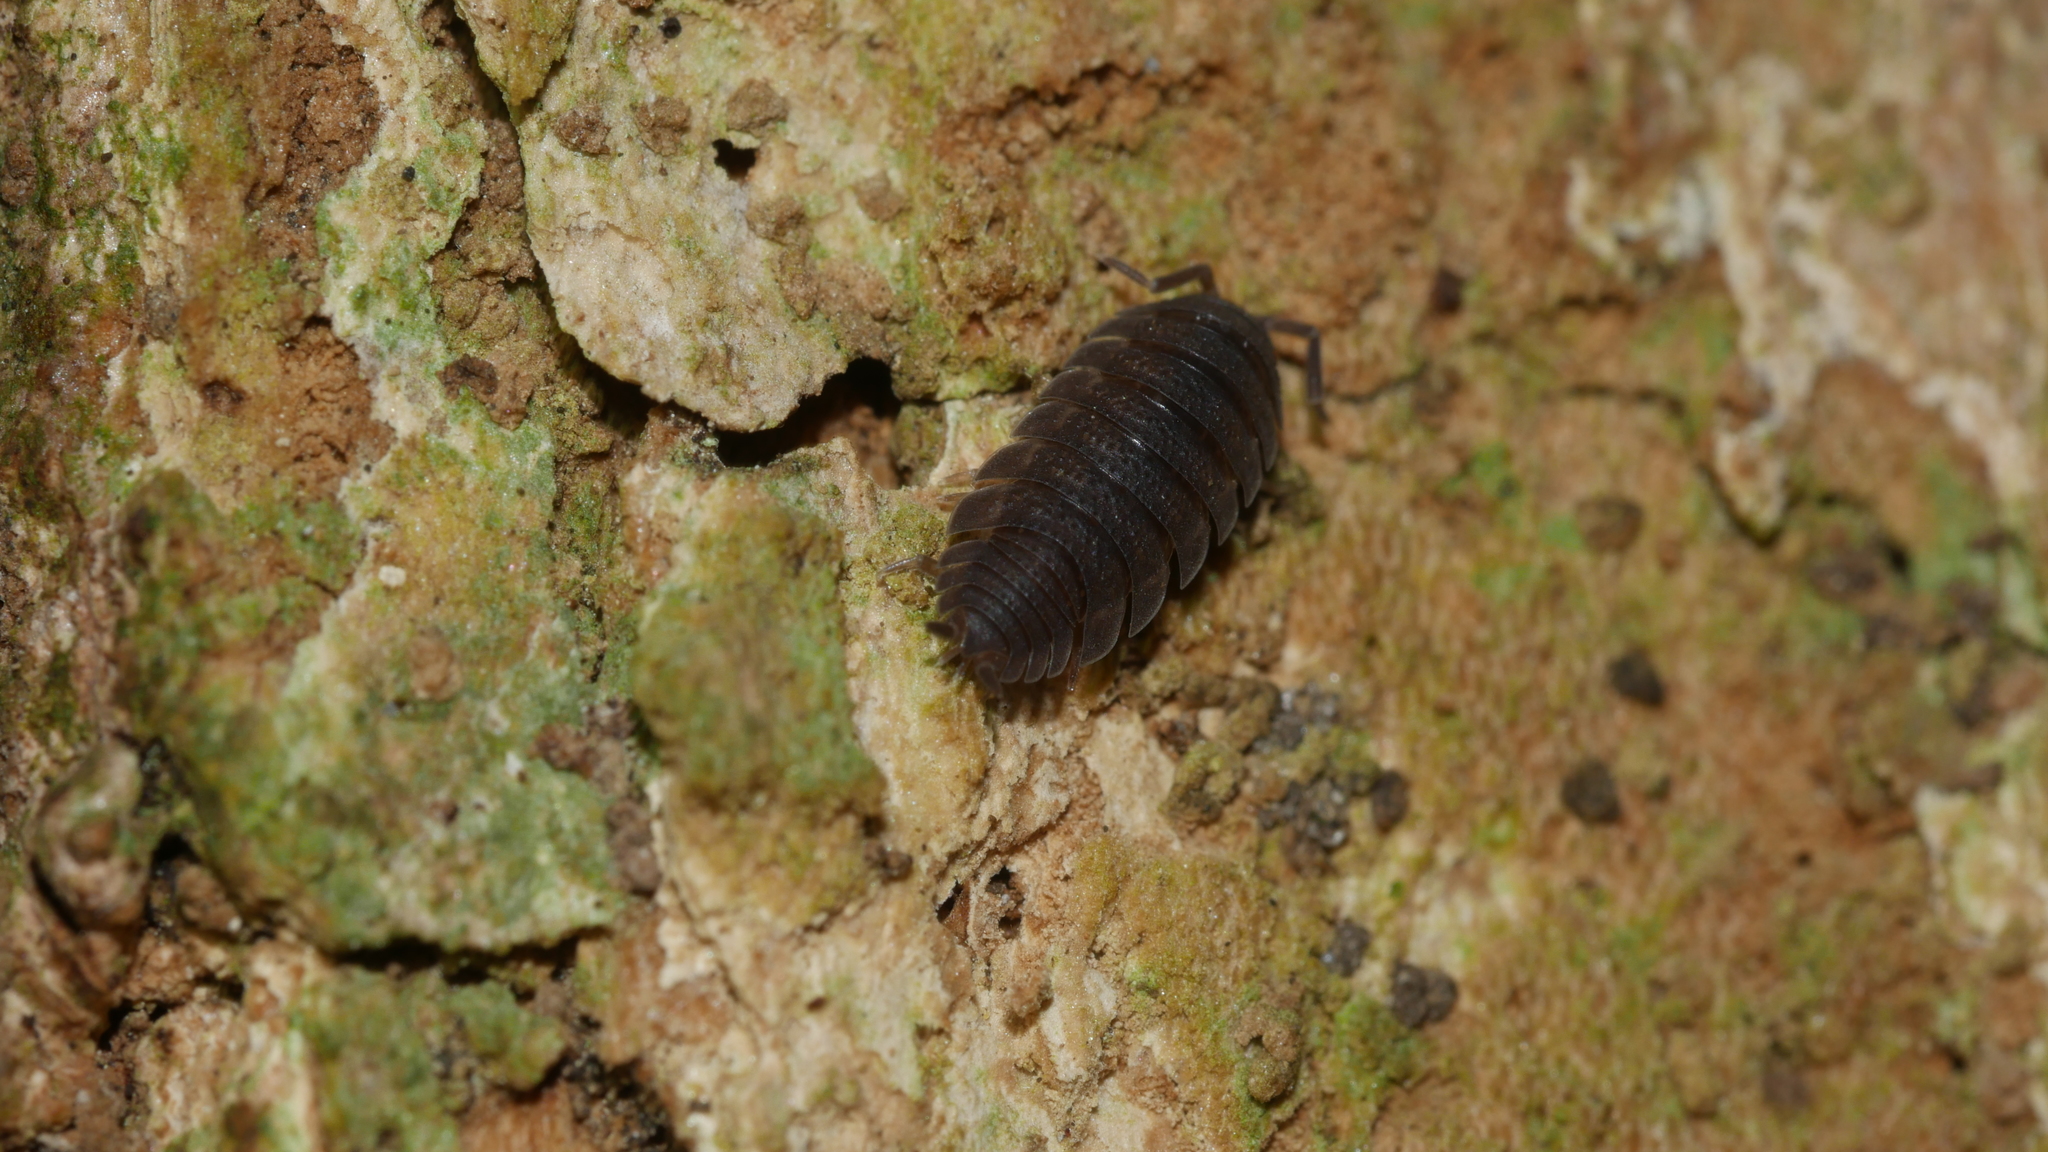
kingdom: Animalia
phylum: Arthropoda
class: Malacostraca
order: Isopoda
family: Porcellionidae
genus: Porcellio
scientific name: Porcellio scaber
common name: Common rough woodlouse
